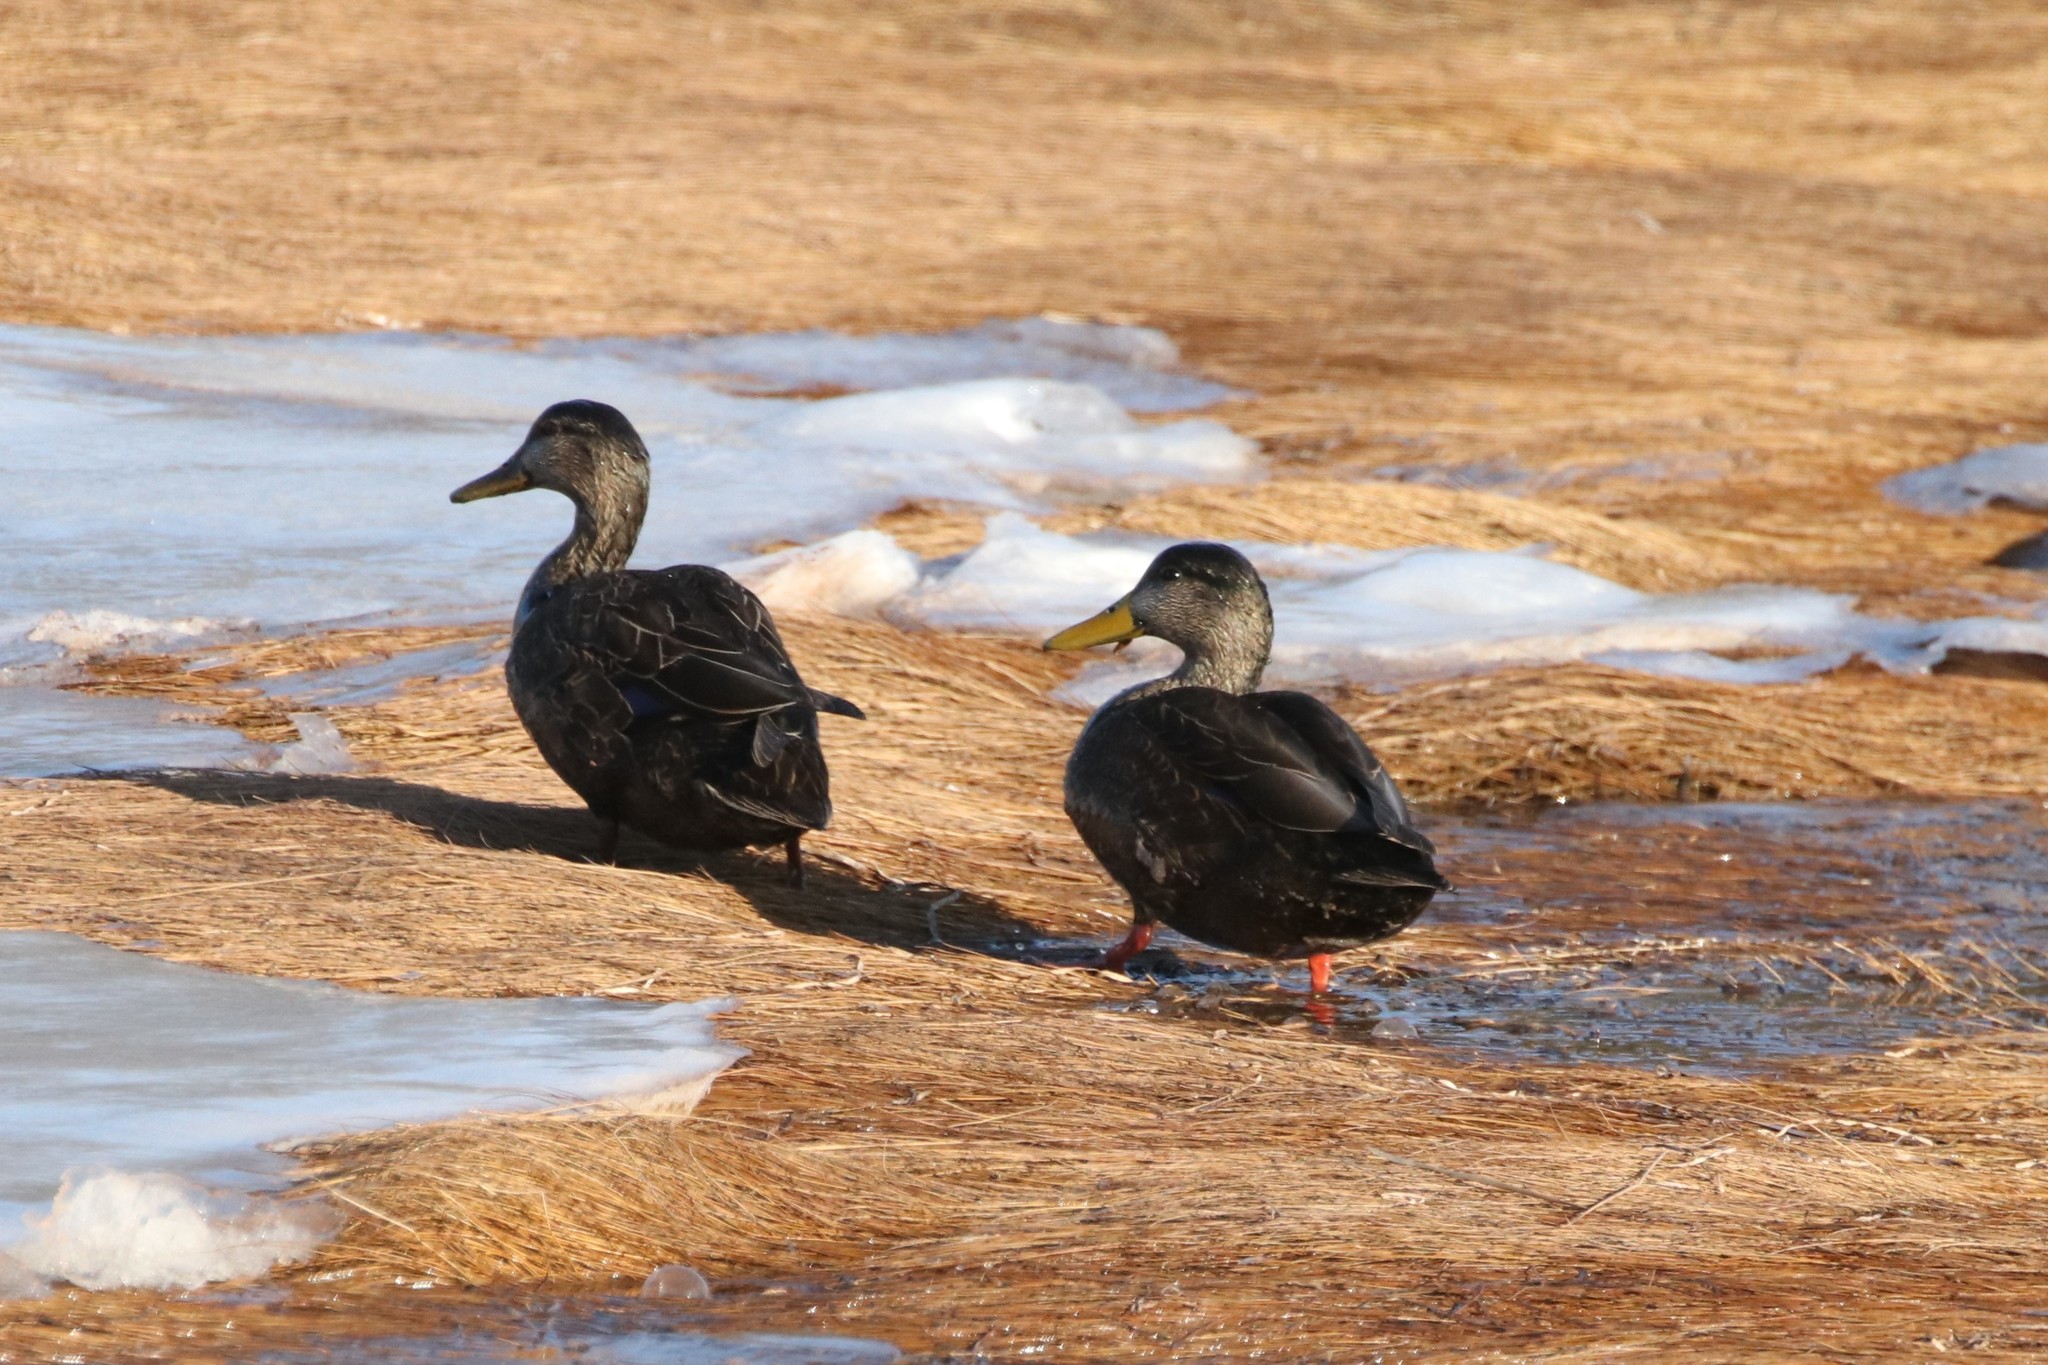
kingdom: Animalia
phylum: Chordata
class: Aves
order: Anseriformes
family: Anatidae
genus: Anas
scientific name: Anas rubripes
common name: American black duck
